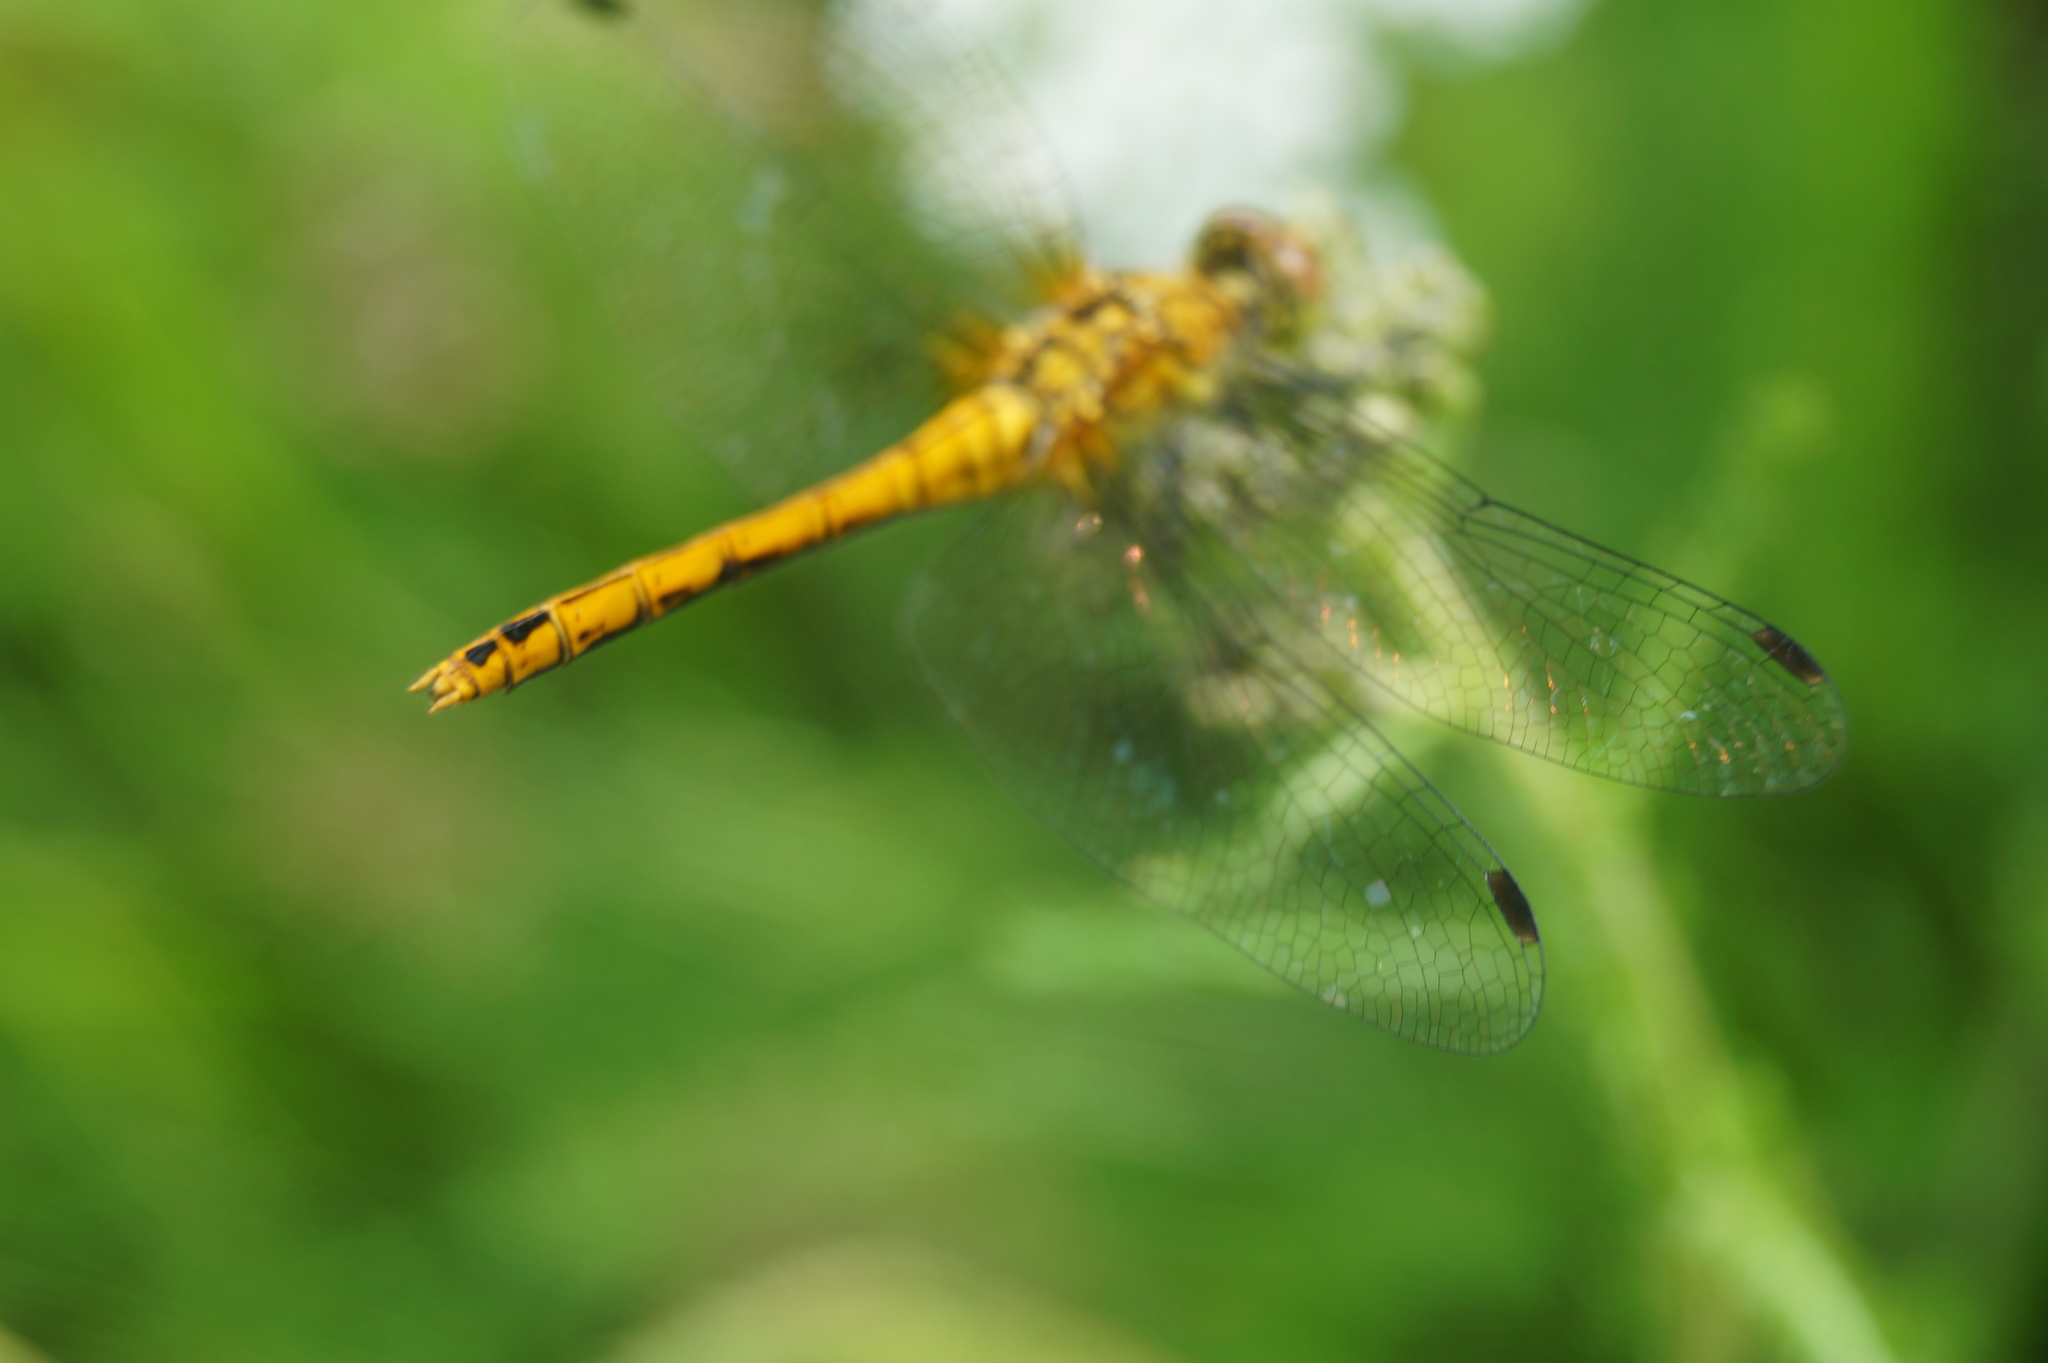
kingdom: Animalia
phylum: Arthropoda
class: Insecta
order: Odonata
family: Libellulidae
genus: Sympetrum
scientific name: Sympetrum sanguineum
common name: Ruddy darter
